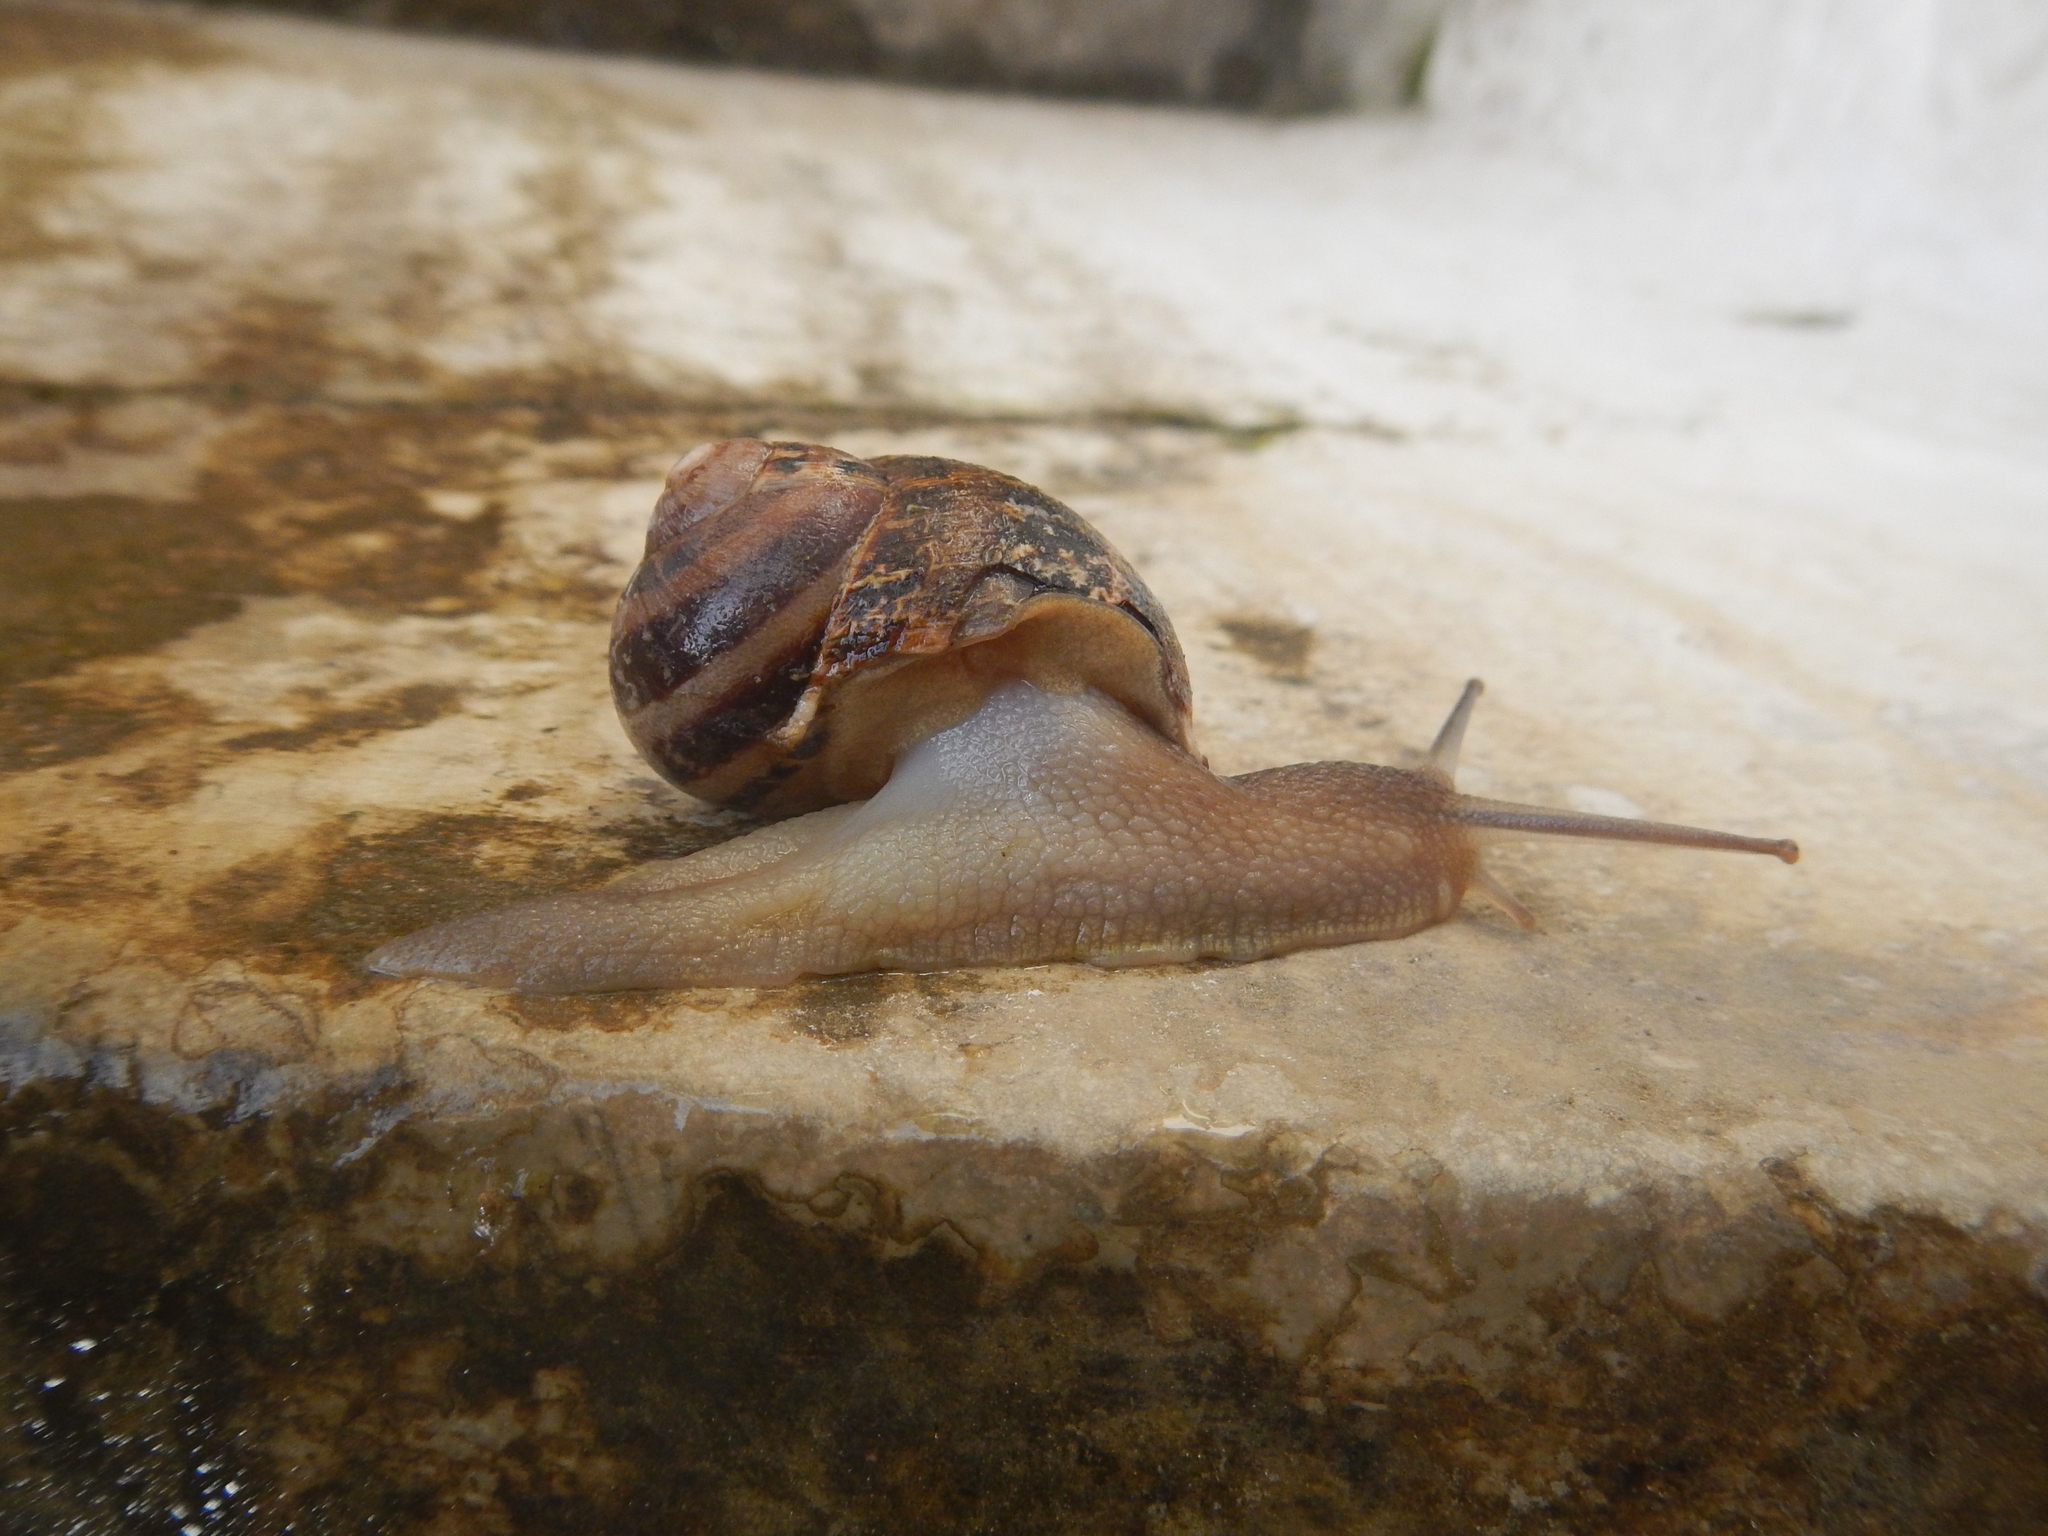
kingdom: Animalia
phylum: Mollusca
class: Gastropoda
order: Stylommatophora
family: Helicidae
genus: Cornu
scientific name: Cornu aspersum
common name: Brown garden snail
